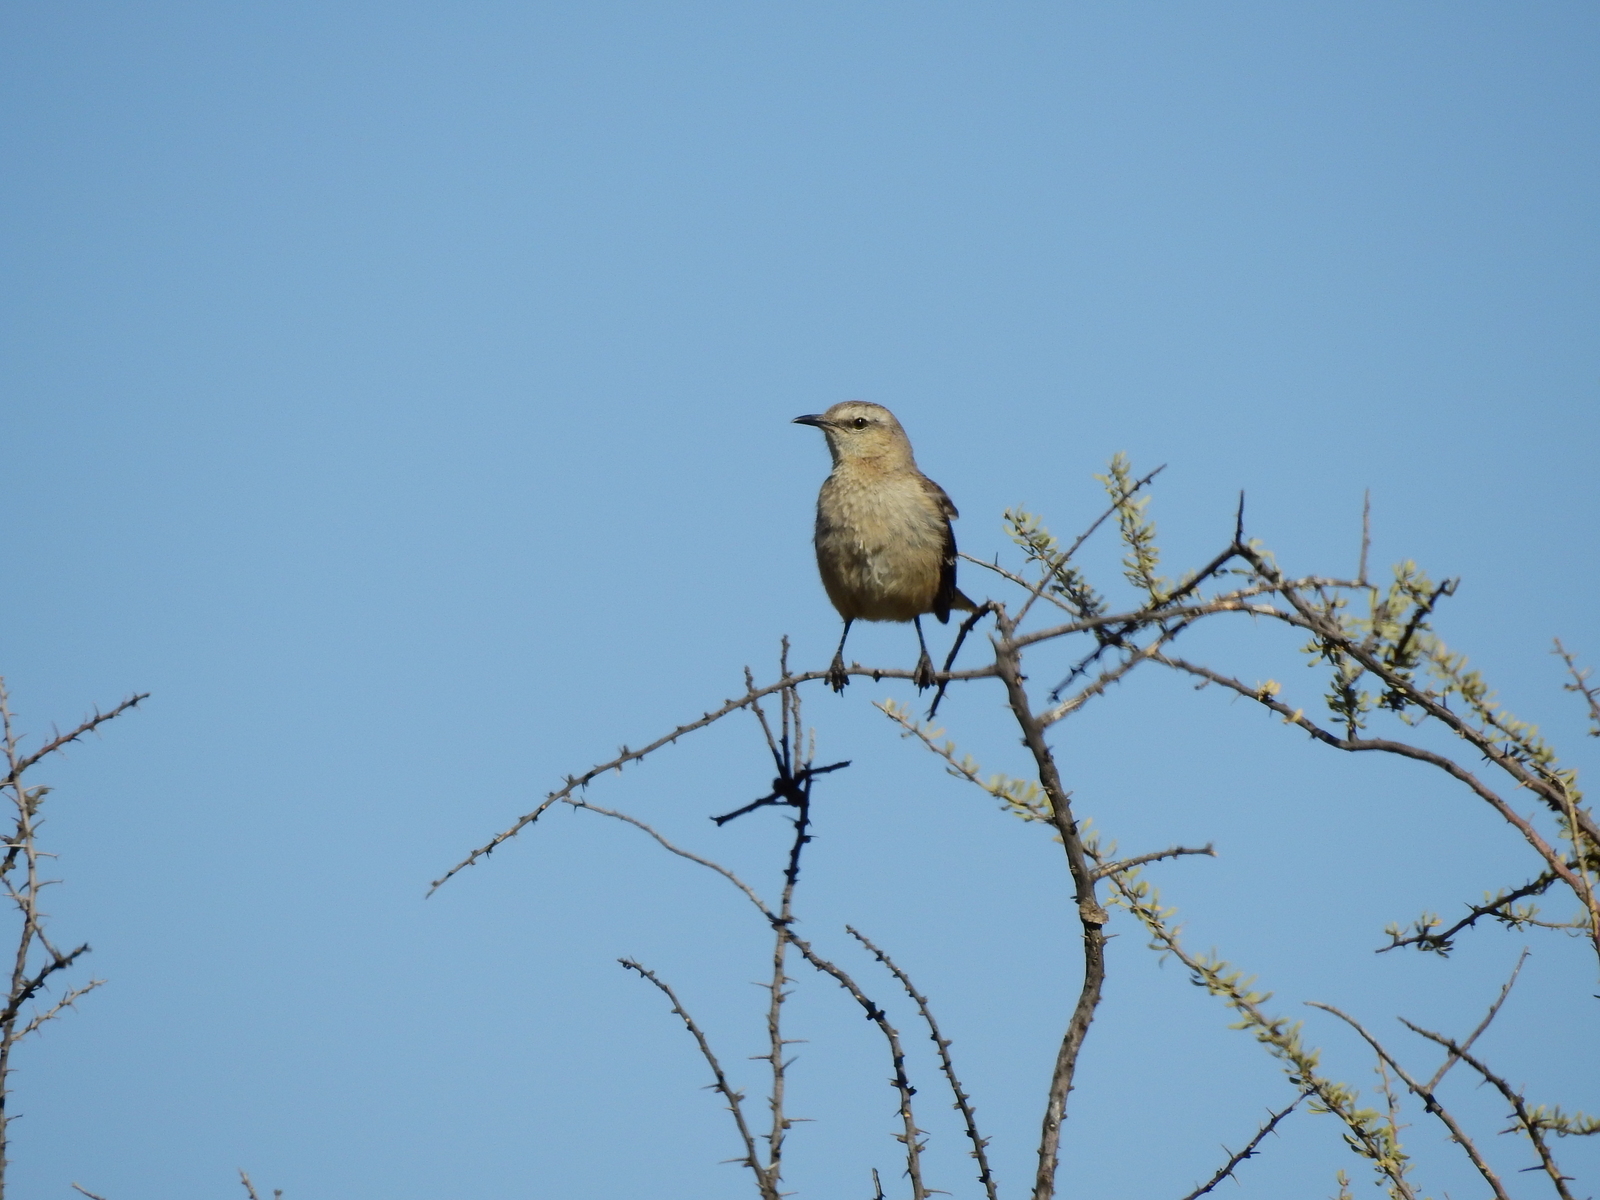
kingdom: Animalia
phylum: Chordata
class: Aves
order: Passeriformes
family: Mimidae
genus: Mimus
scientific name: Mimus patagonicus
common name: Patagonian mockingbird
